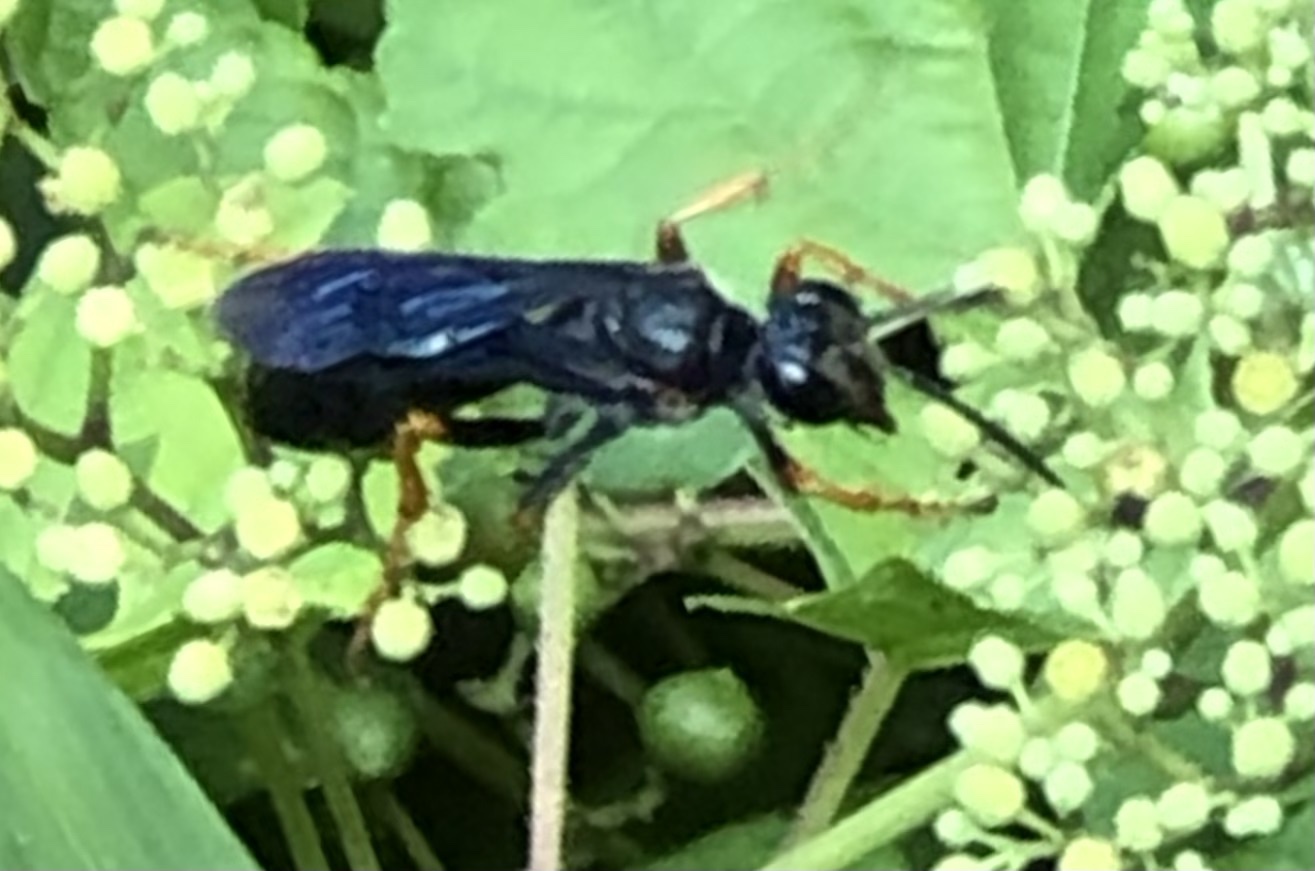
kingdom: Animalia
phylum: Arthropoda
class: Insecta
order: Hymenoptera
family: Sphecidae
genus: Sphex
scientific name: Sphex nudus
